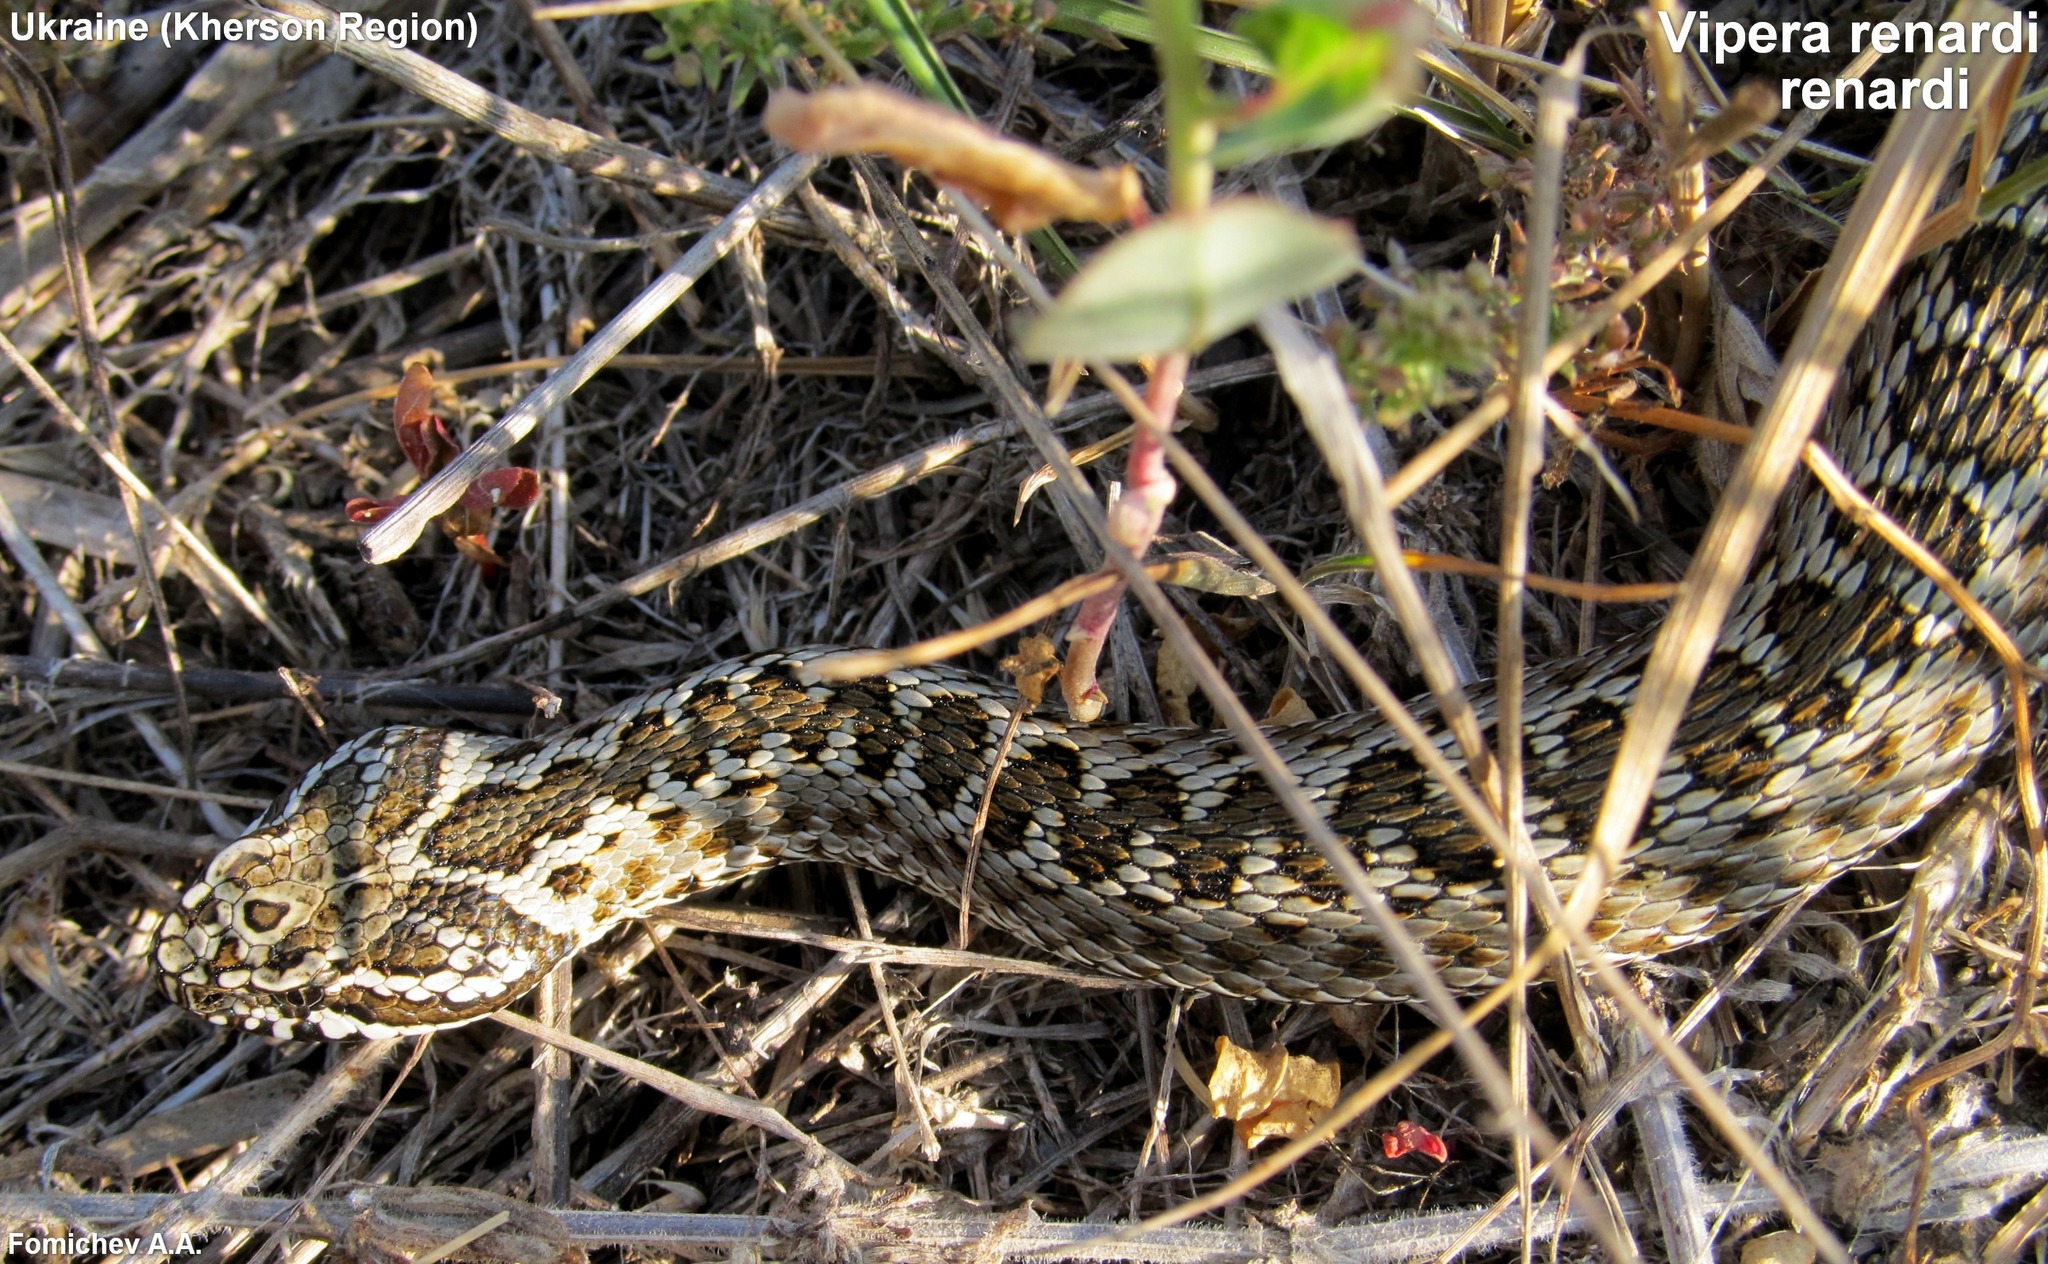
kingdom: Animalia
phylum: Chordata
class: Squamata
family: Viperidae
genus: Vipera
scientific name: Vipera renardi
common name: Eastern steppe viper
